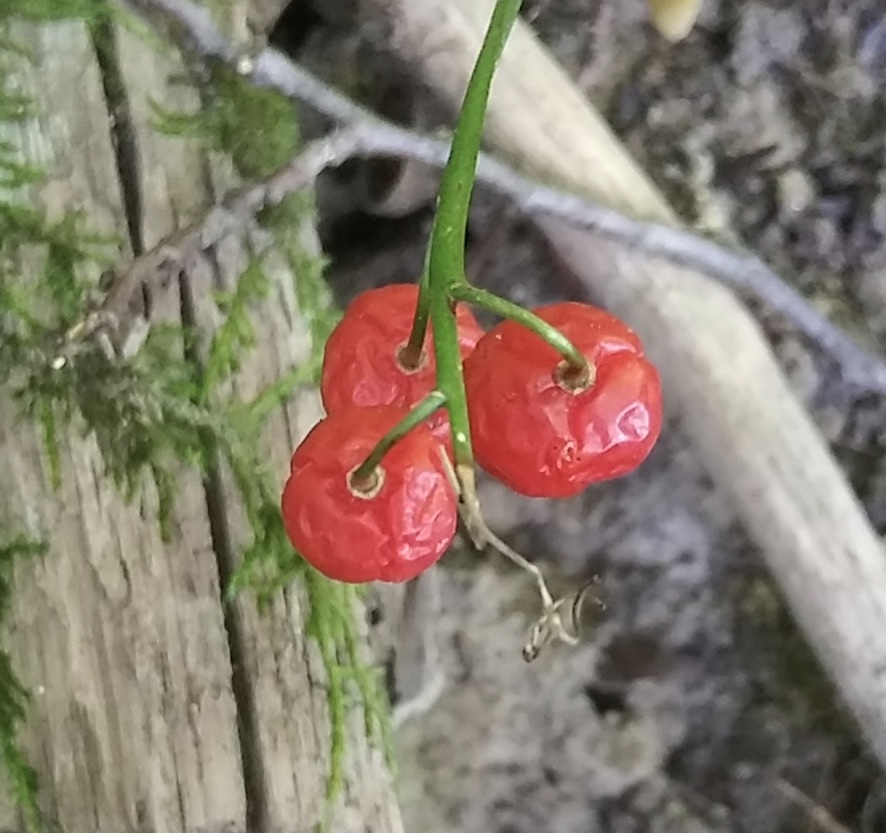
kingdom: Plantae
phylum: Tracheophyta
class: Liliopsida
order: Asparagales
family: Asparagaceae
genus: Convallaria
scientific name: Convallaria majalis
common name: Lily-of-the-valley
